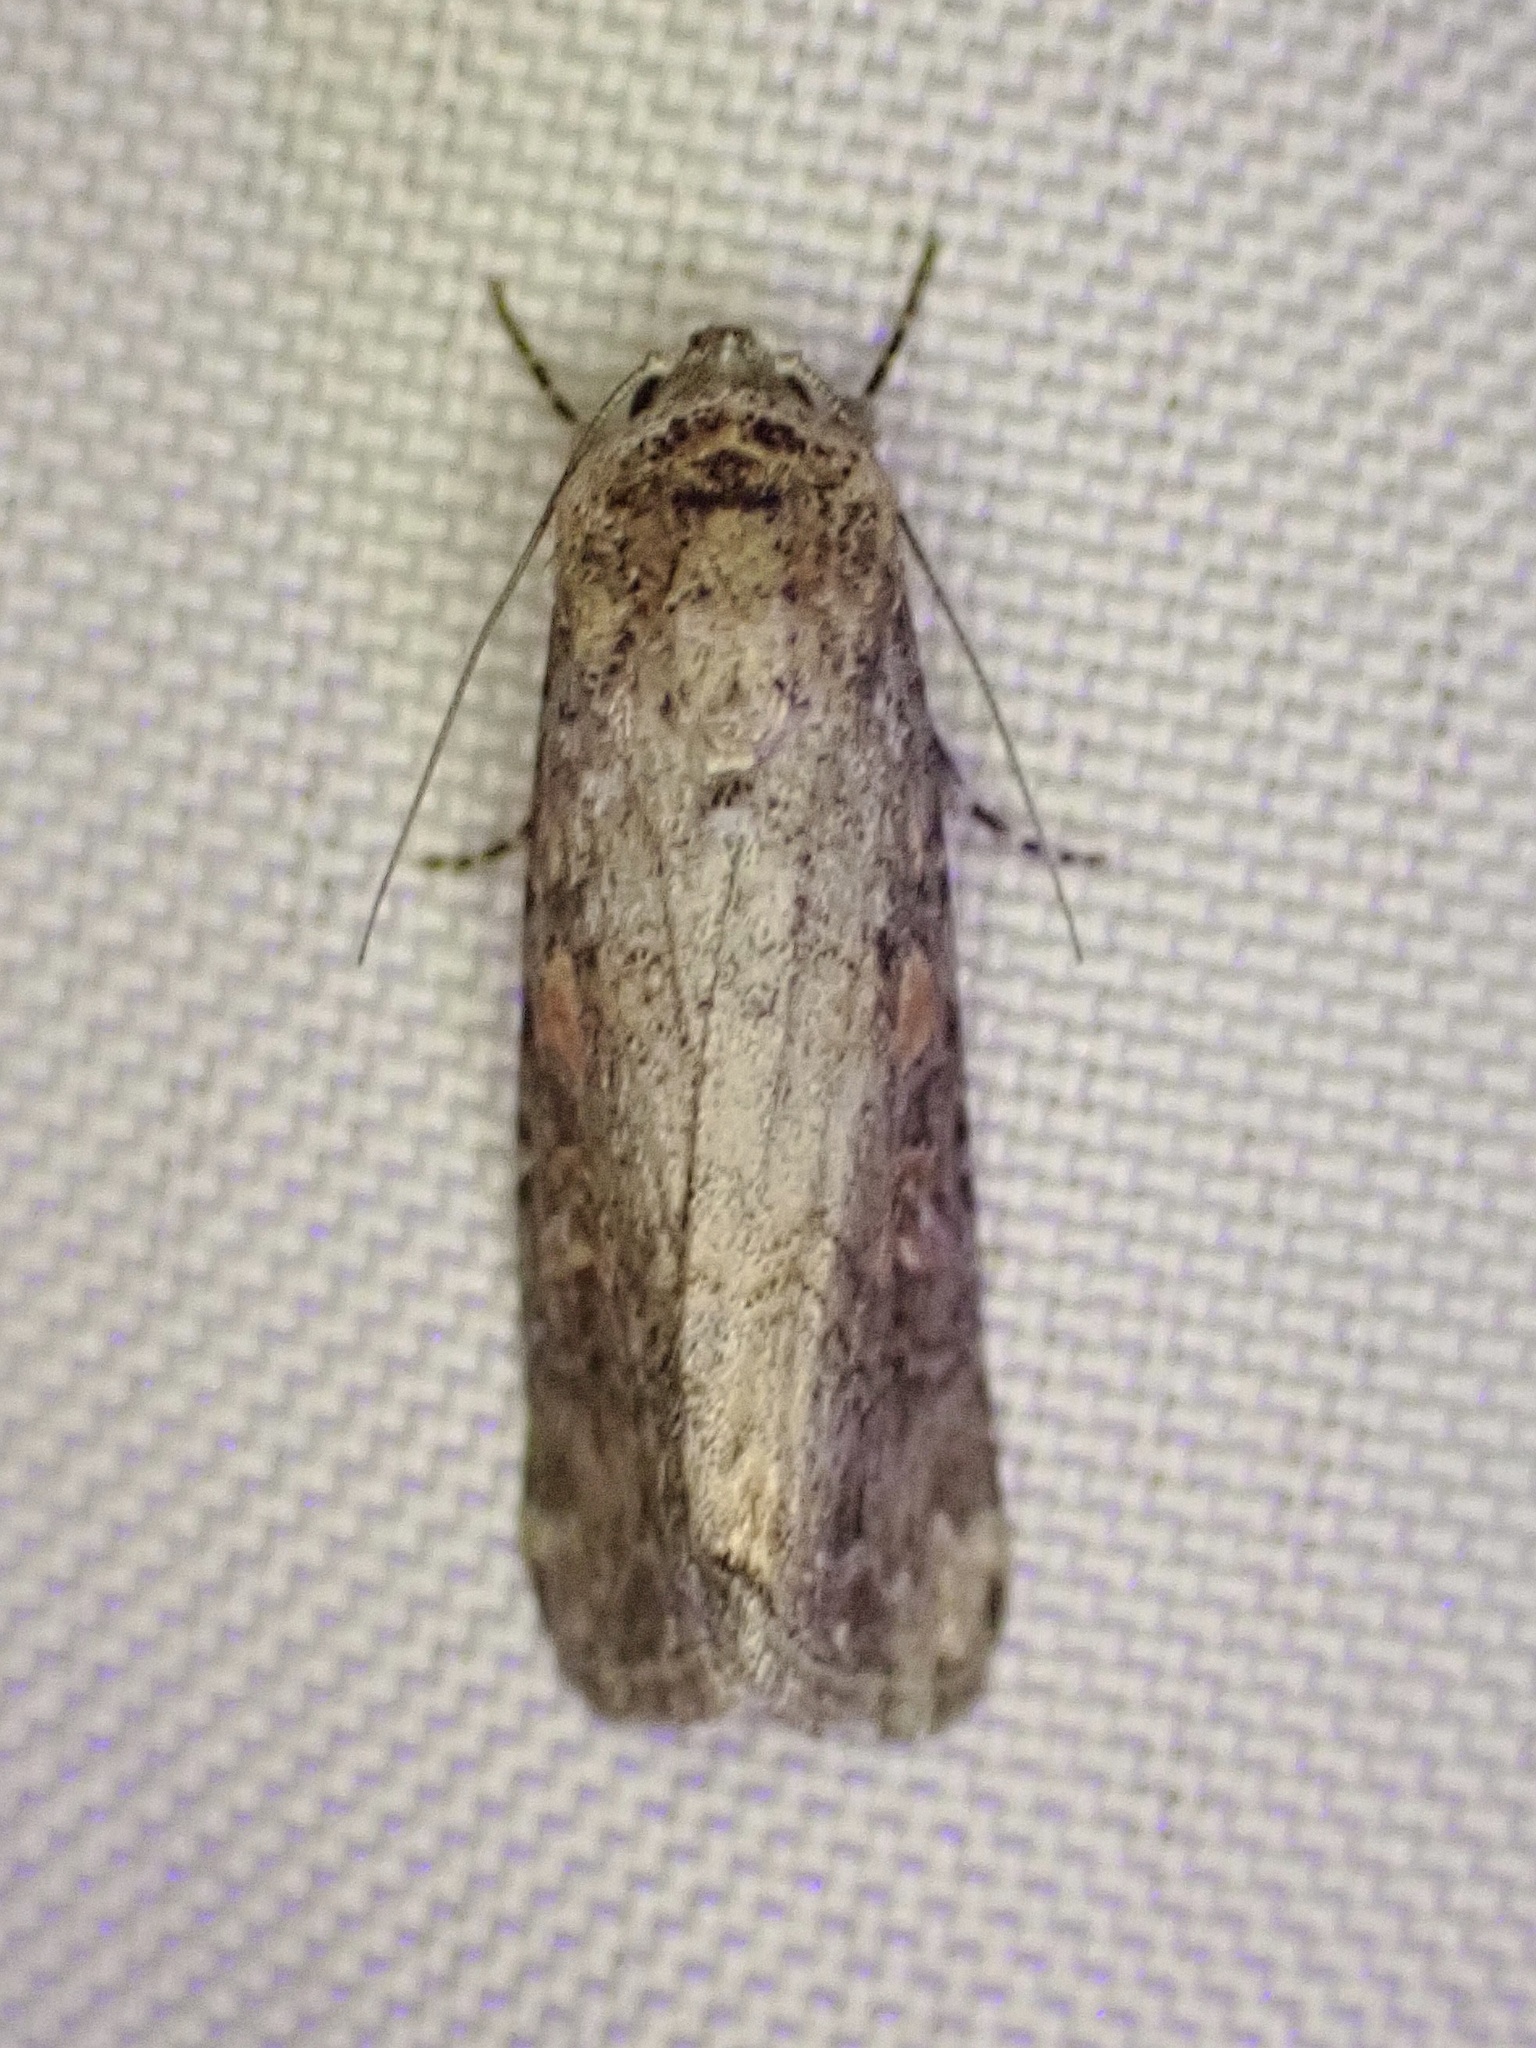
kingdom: Animalia
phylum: Arthropoda
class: Insecta
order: Lepidoptera
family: Noctuidae
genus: Peridroma
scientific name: Peridroma saucia
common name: Pearly underwing
